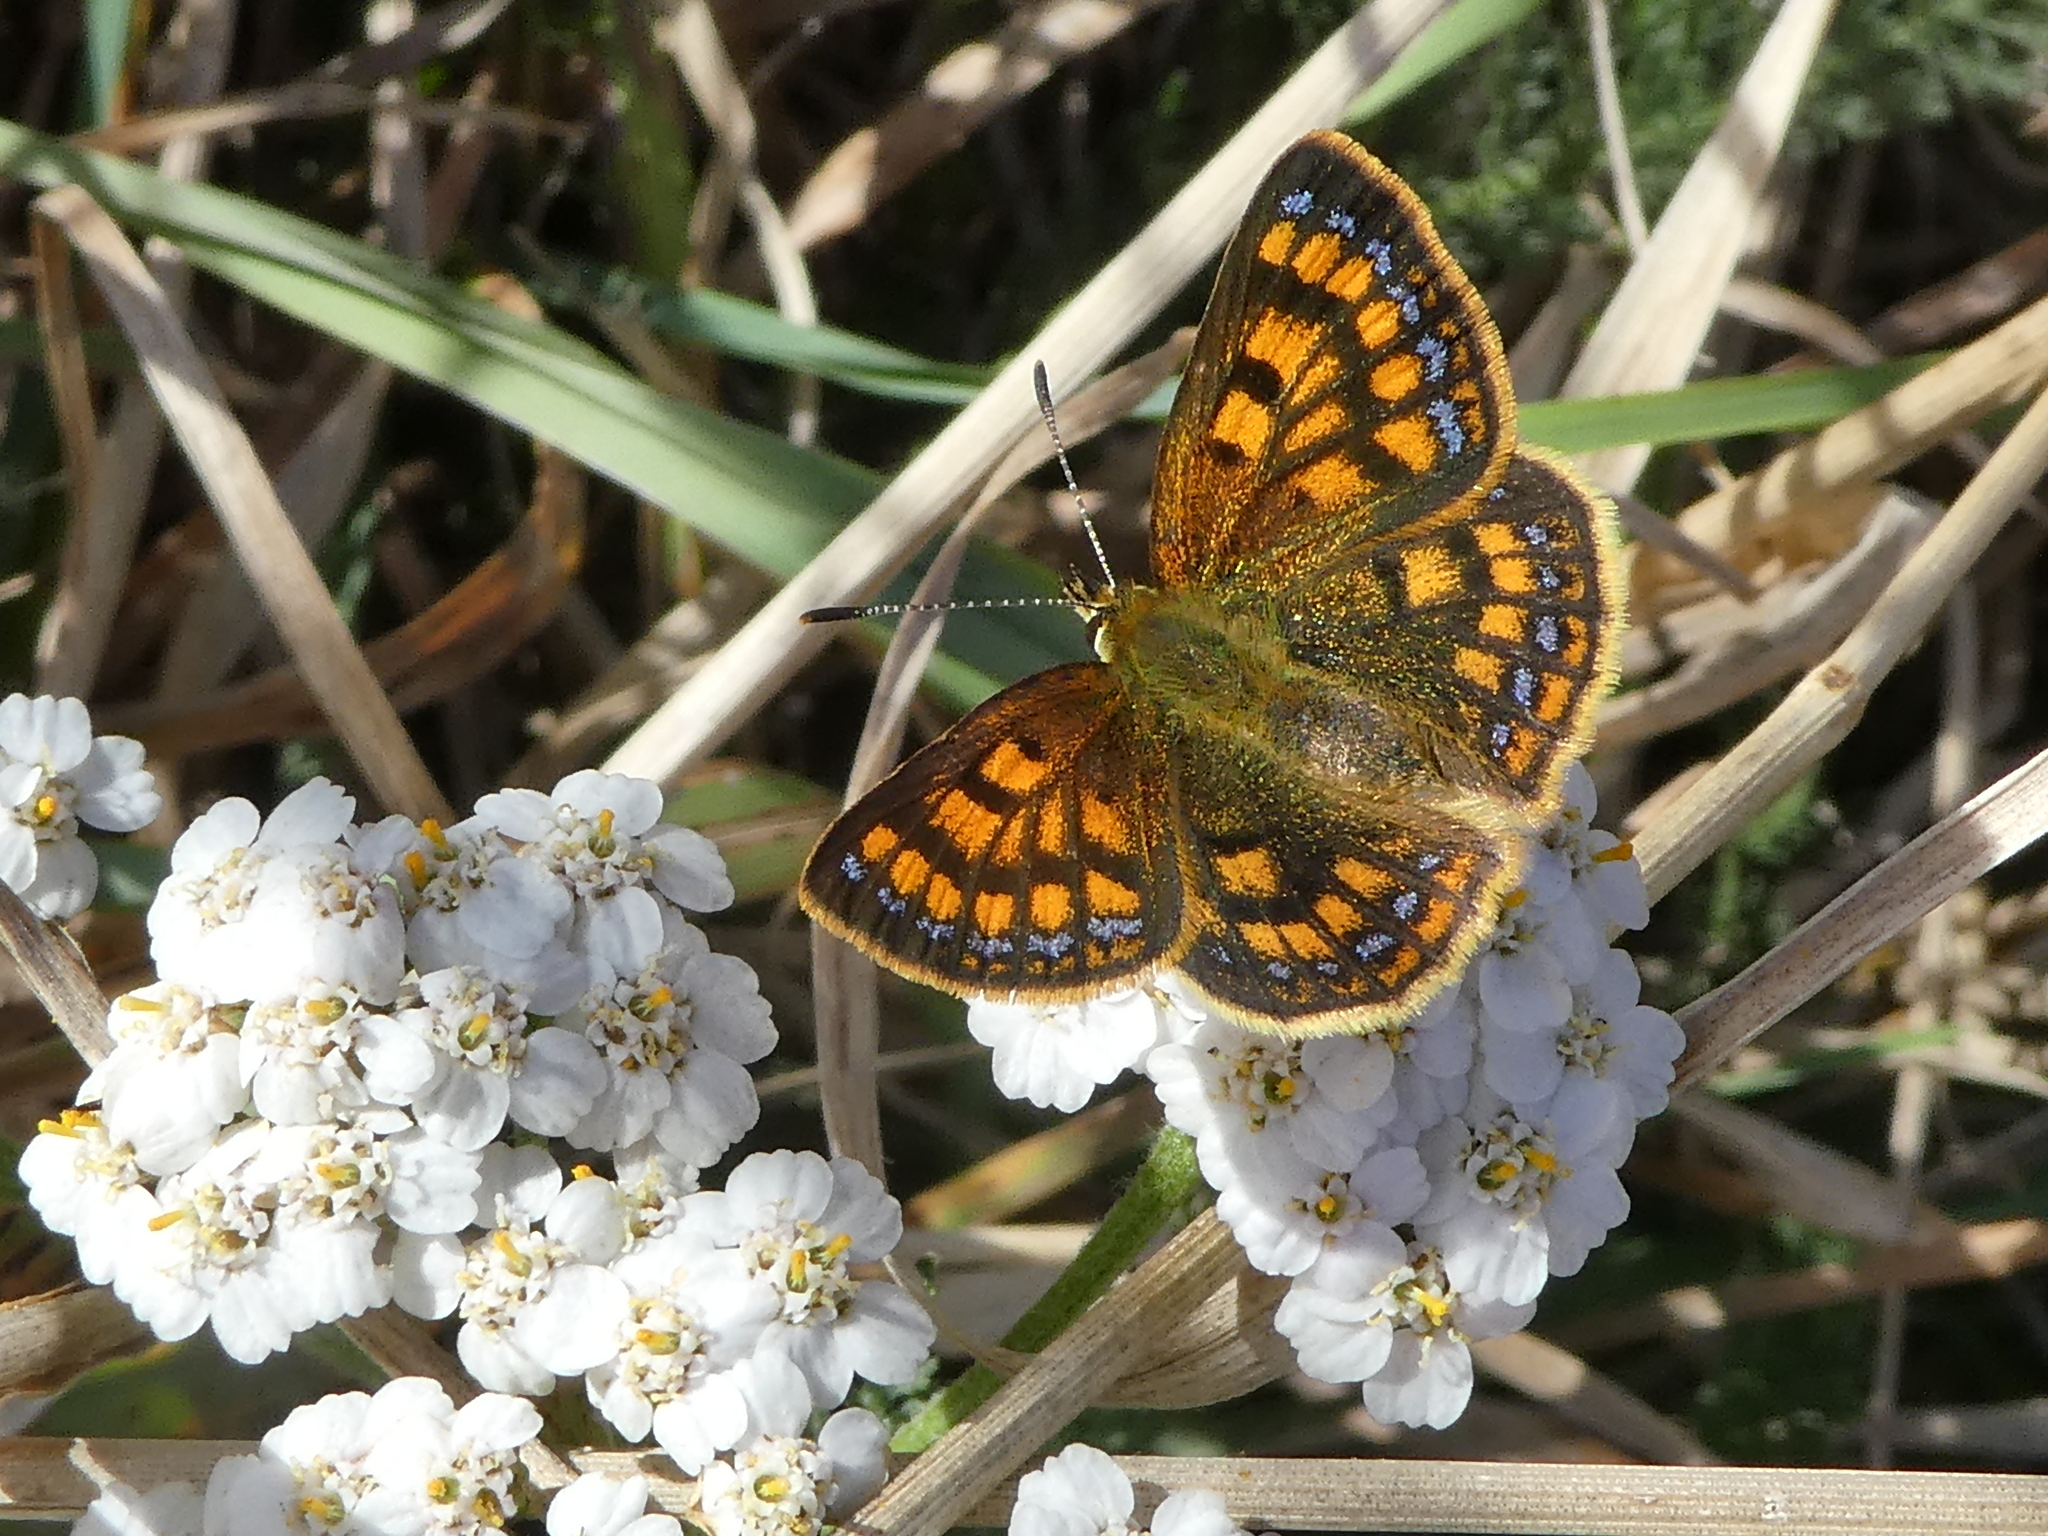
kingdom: Animalia
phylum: Arthropoda
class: Insecta
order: Lepidoptera
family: Lycaenidae
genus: Lycaena
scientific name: Lycaena salustius
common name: North island coastal copper
